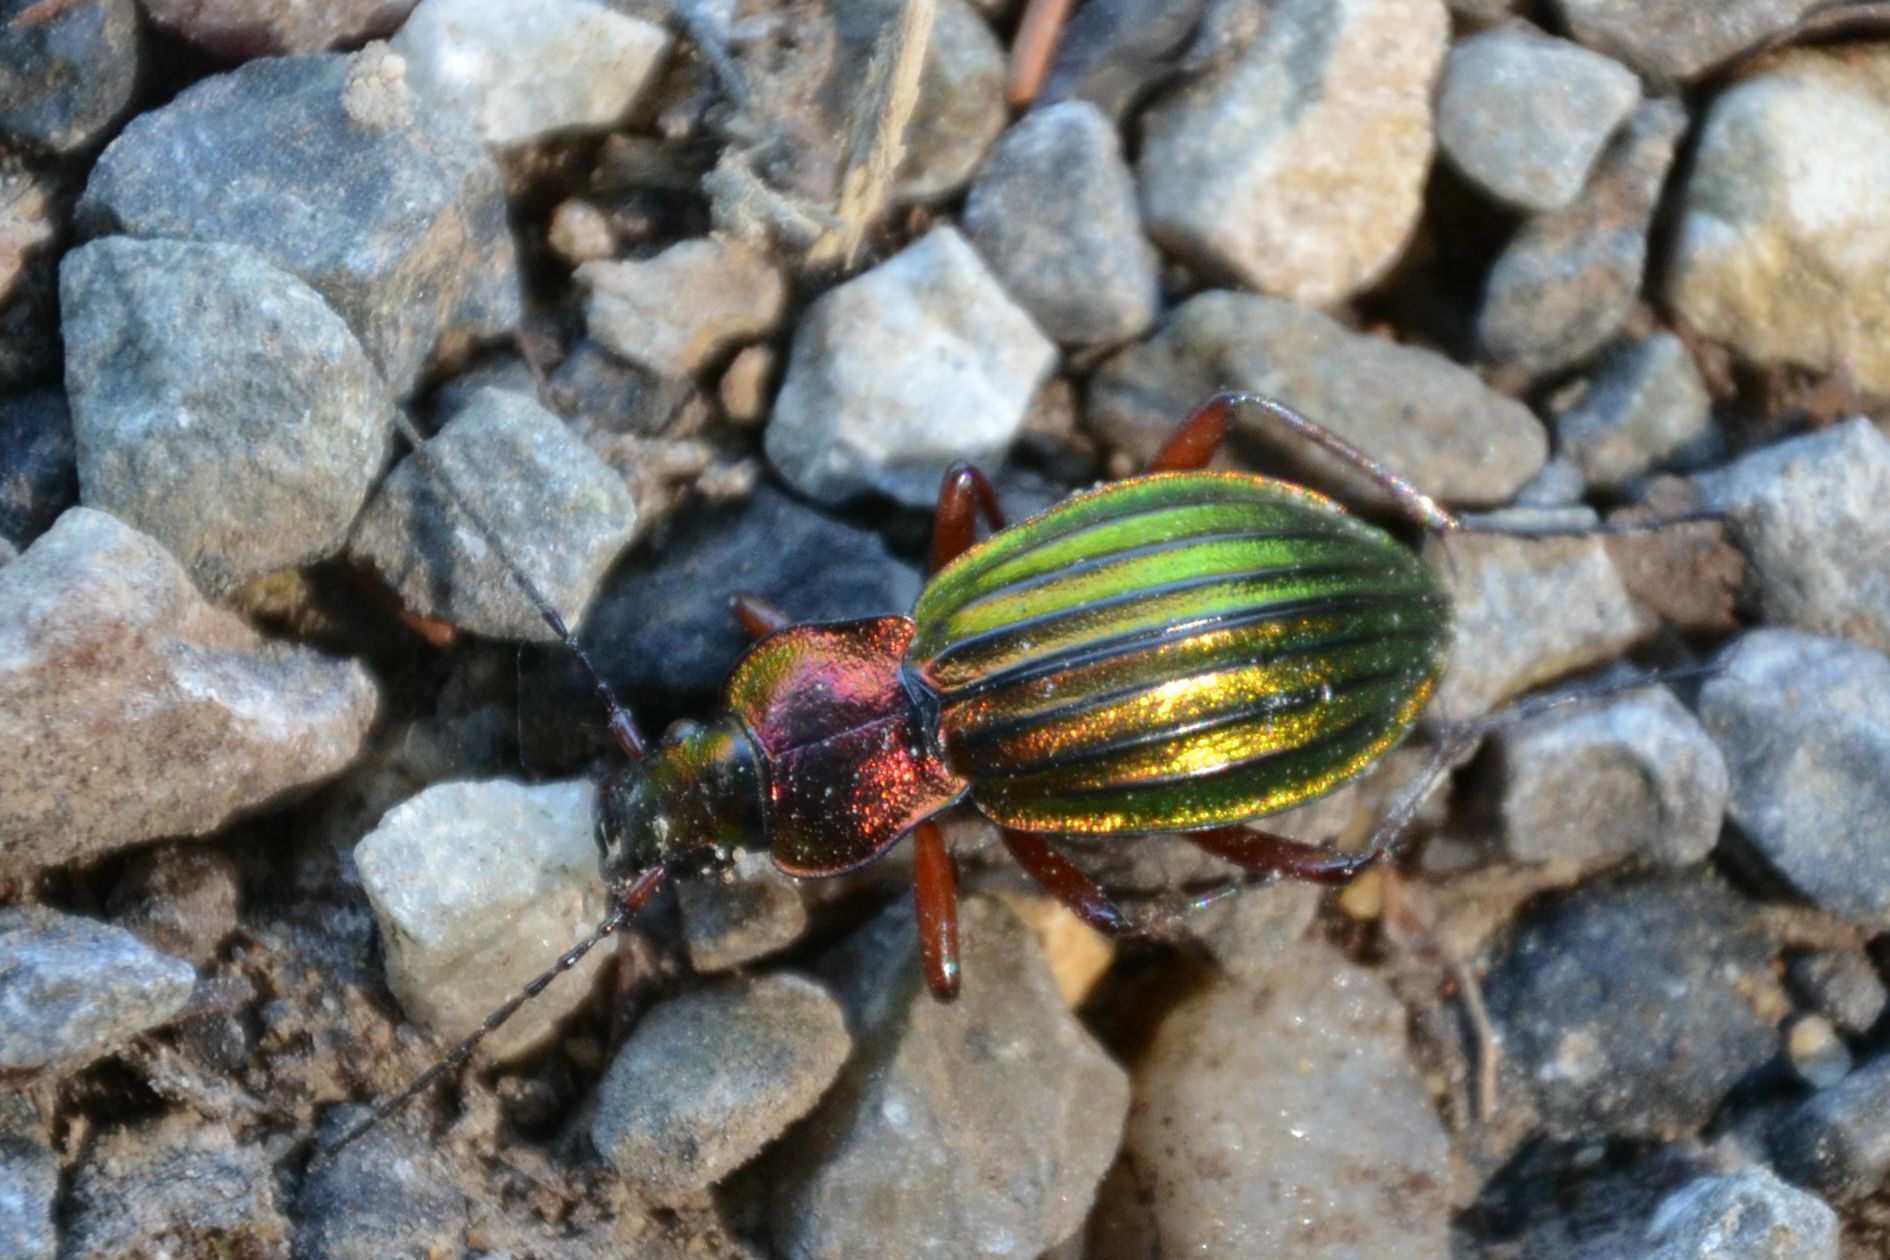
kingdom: Animalia
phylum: Arthropoda
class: Insecta
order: Coleoptera
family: Carabidae
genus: Carabus
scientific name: Carabus auronitens
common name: Carabus auronitens
